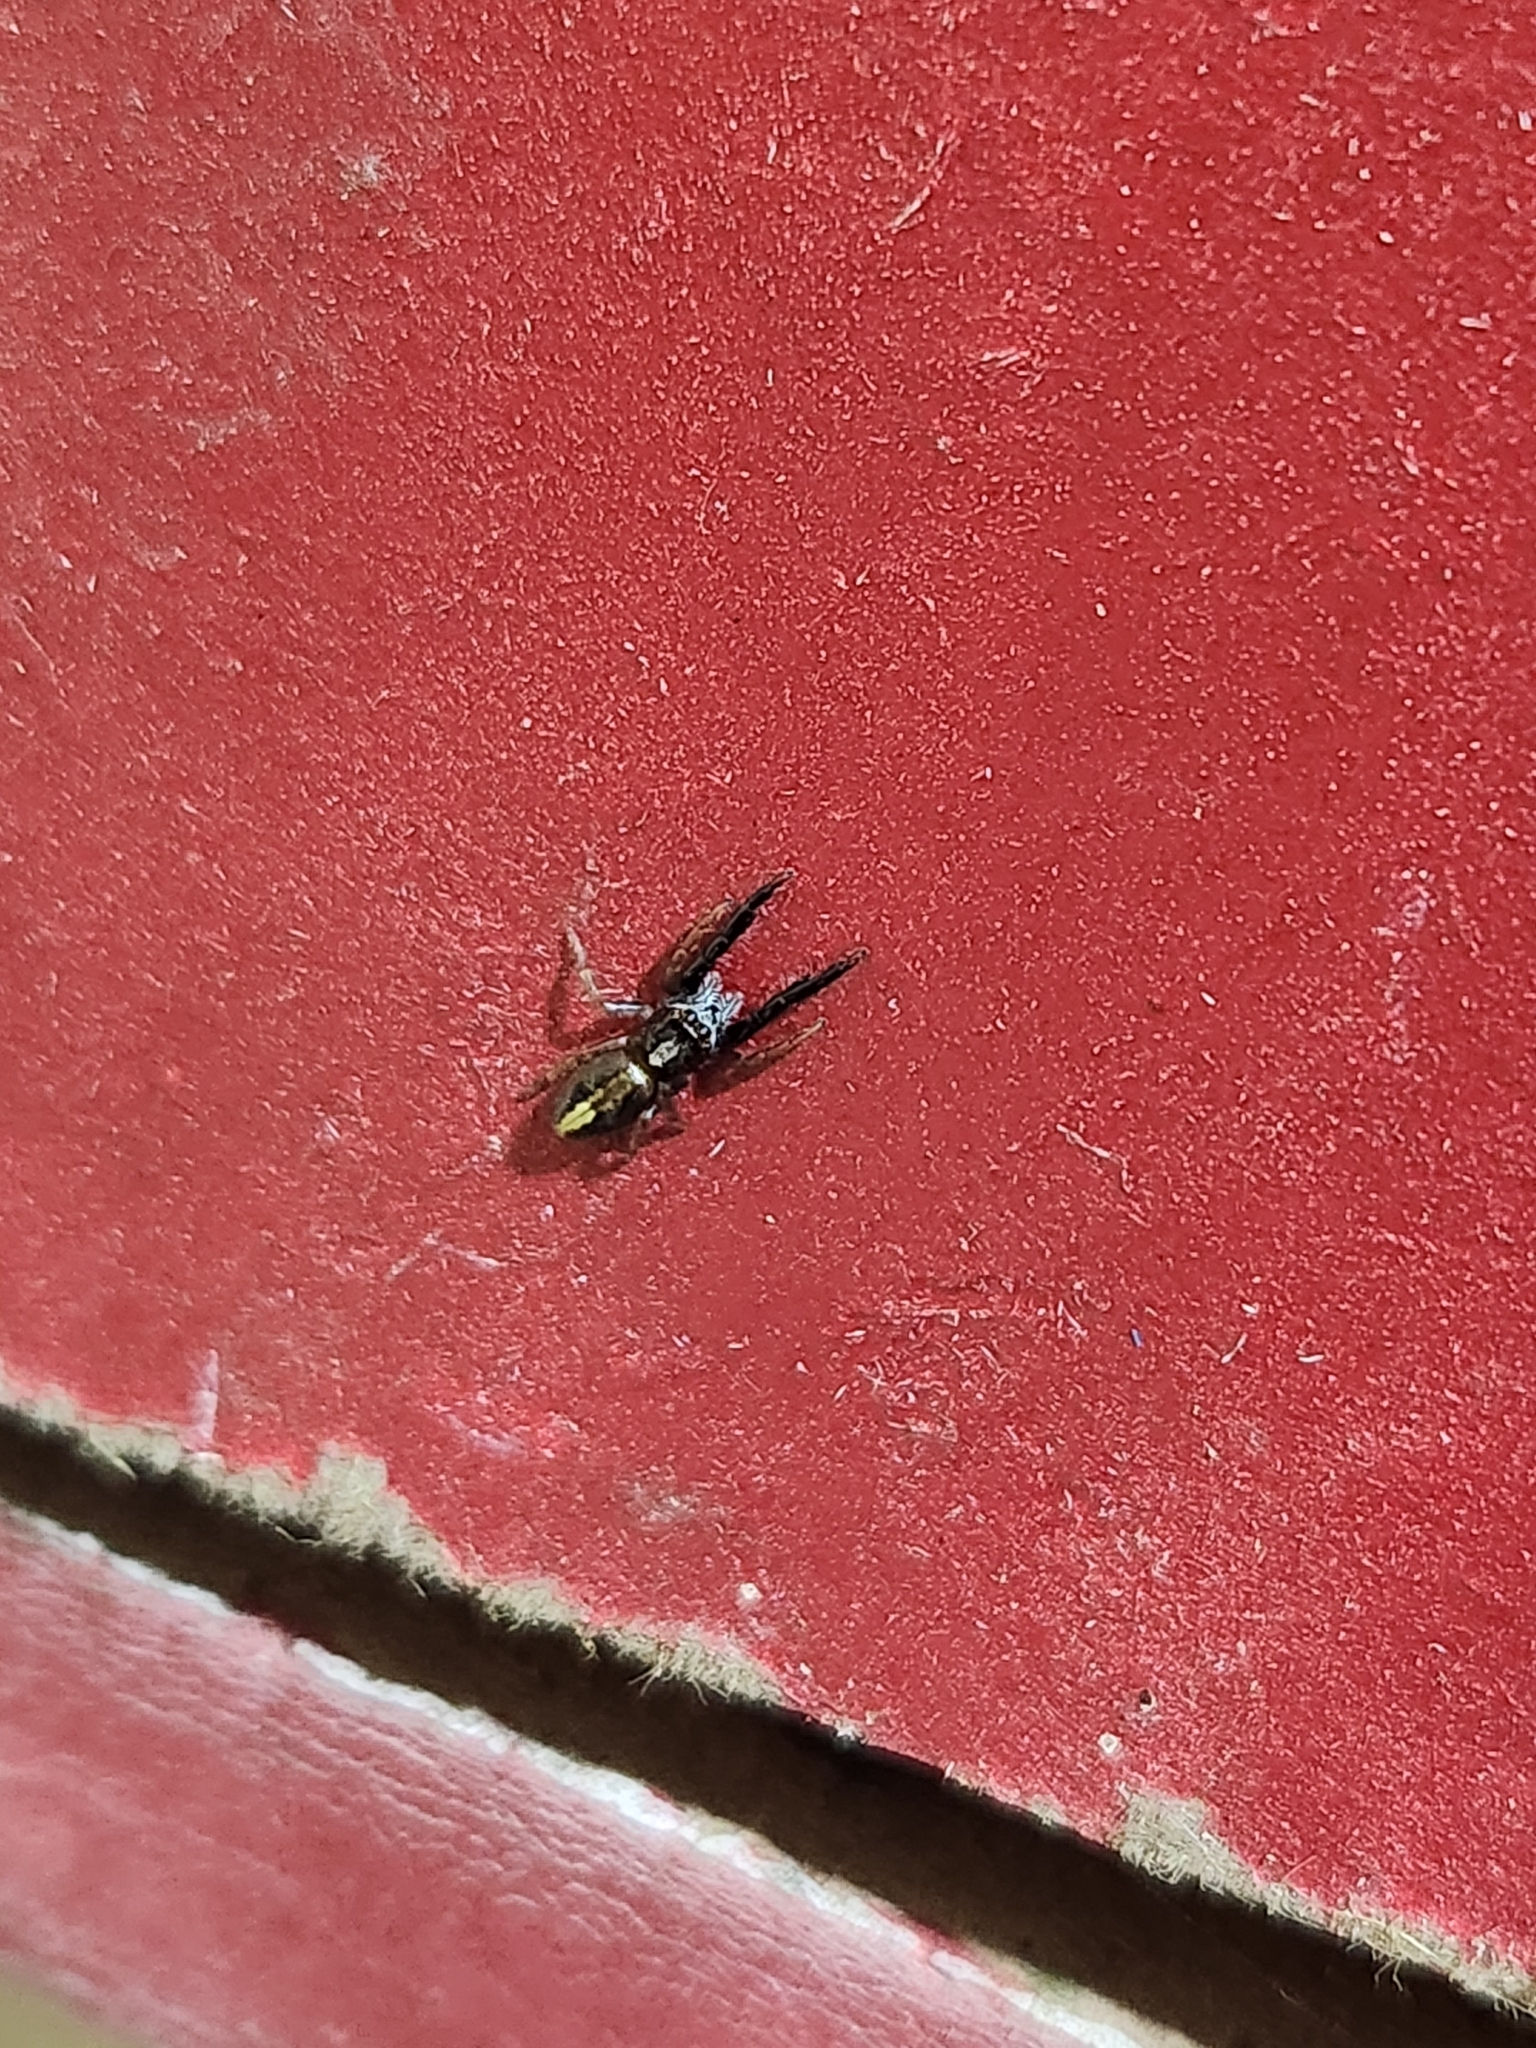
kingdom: Animalia
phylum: Arthropoda
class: Arachnida
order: Araneae
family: Salticidae
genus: Trite
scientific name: Trite planiceps
